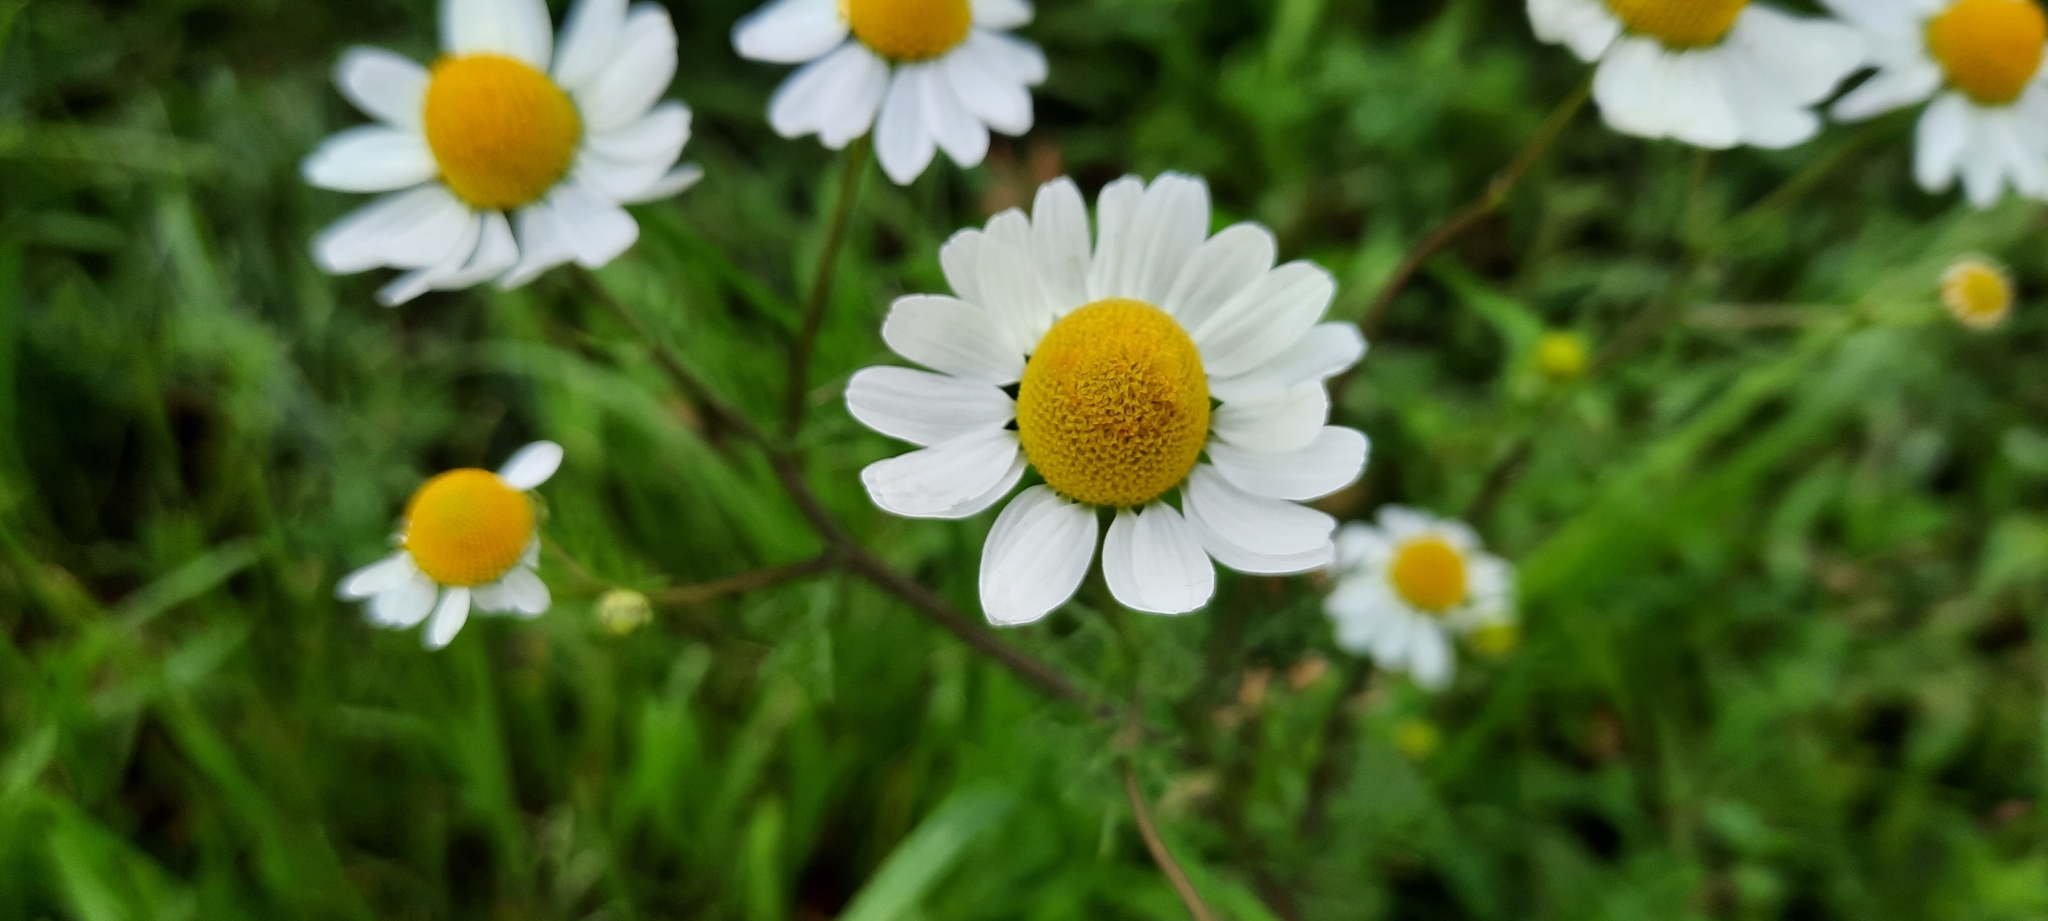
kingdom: Plantae
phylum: Tracheophyta
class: Magnoliopsida
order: Asterales
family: Asteraceae
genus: Matricaria
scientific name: Matricaria chamomilla
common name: Scented mayweed
